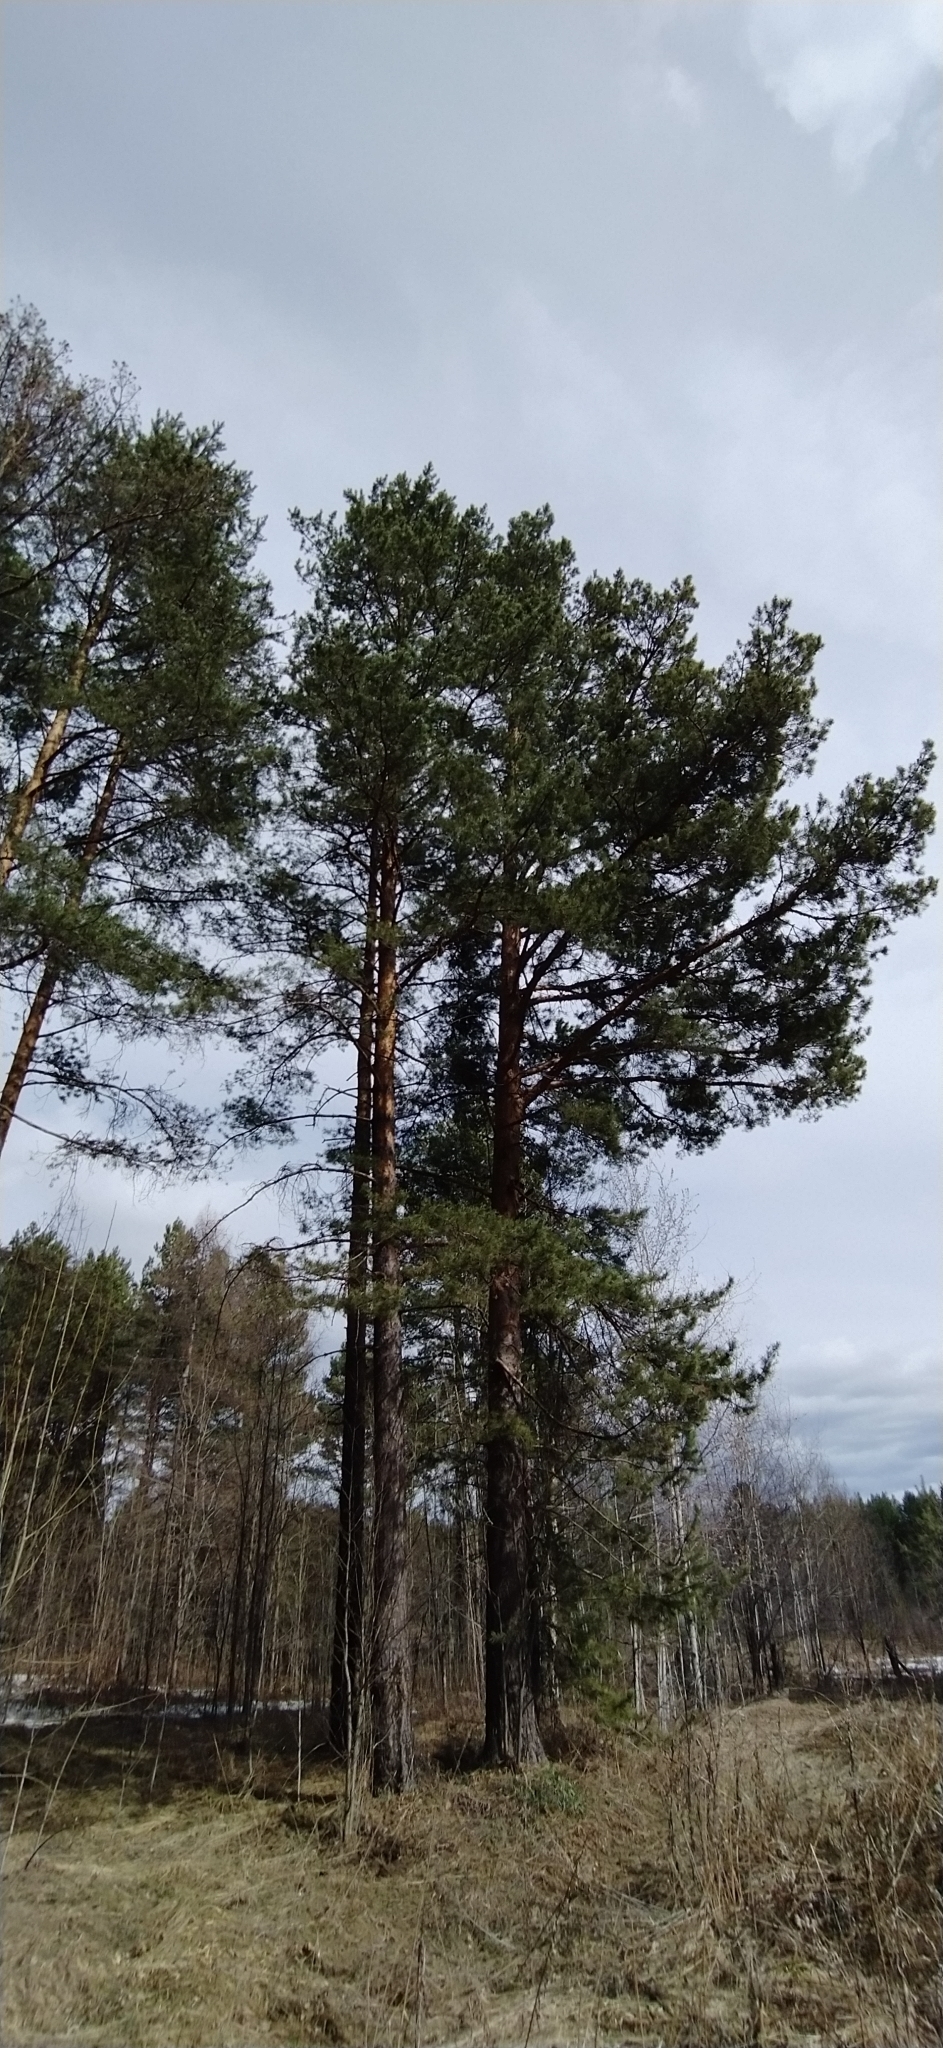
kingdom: Plantae
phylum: Tracheophyta
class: Pinopsida
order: Pinales
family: Pinaceae
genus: Pinus
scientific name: Pinus sylvestris
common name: Scots pine
